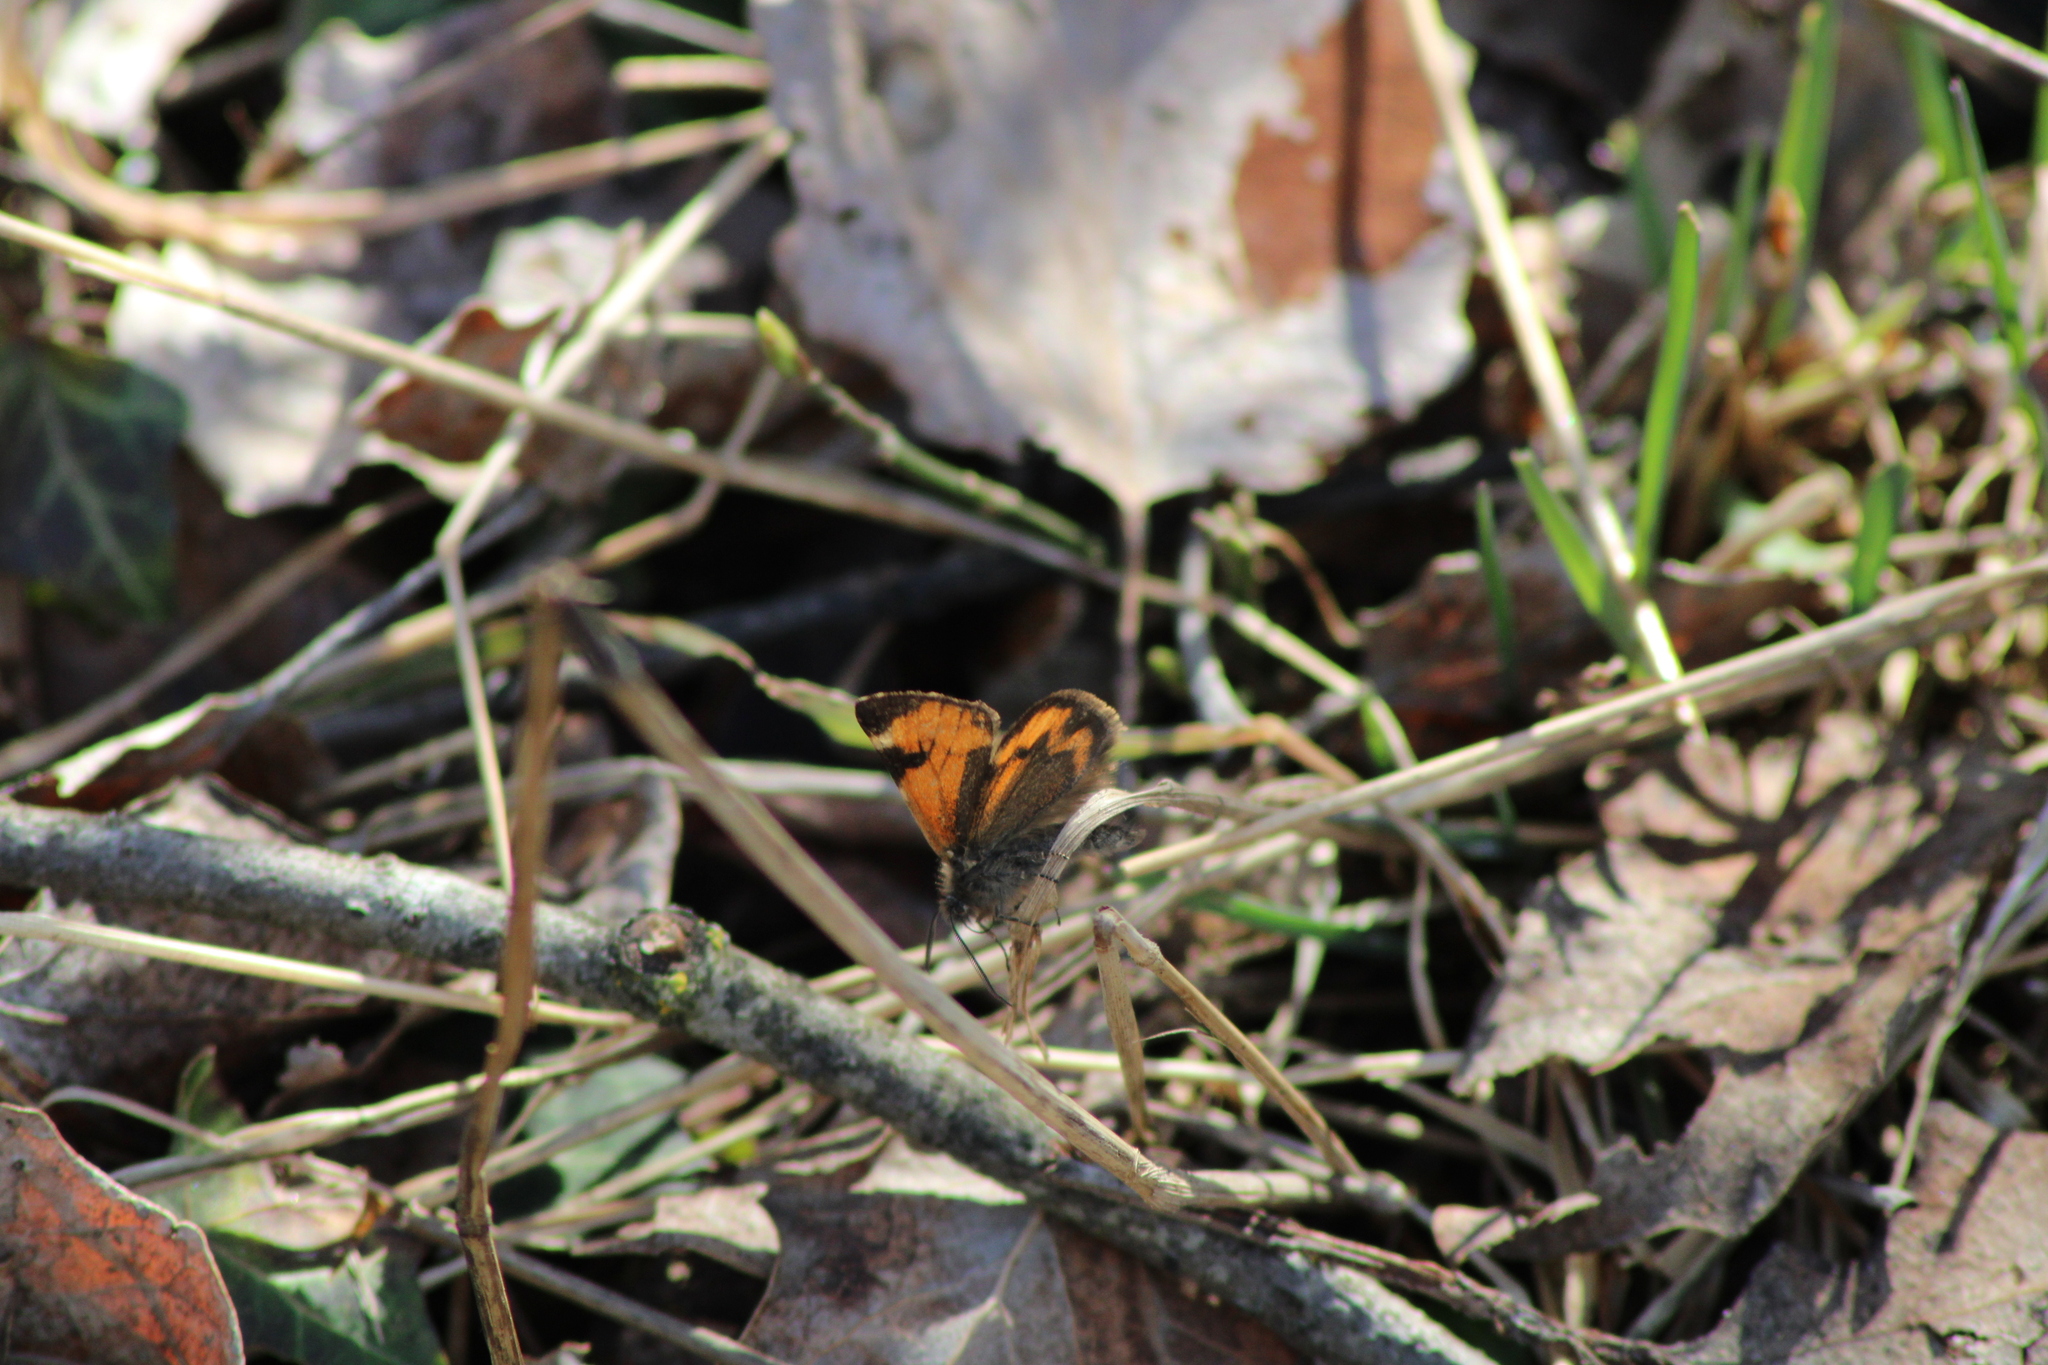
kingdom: Animalia
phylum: Arthropoda
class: Insecta
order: Lepidoptera
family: Geometridae
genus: Archiearis
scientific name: Archiearis notha
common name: Light orange underwing
